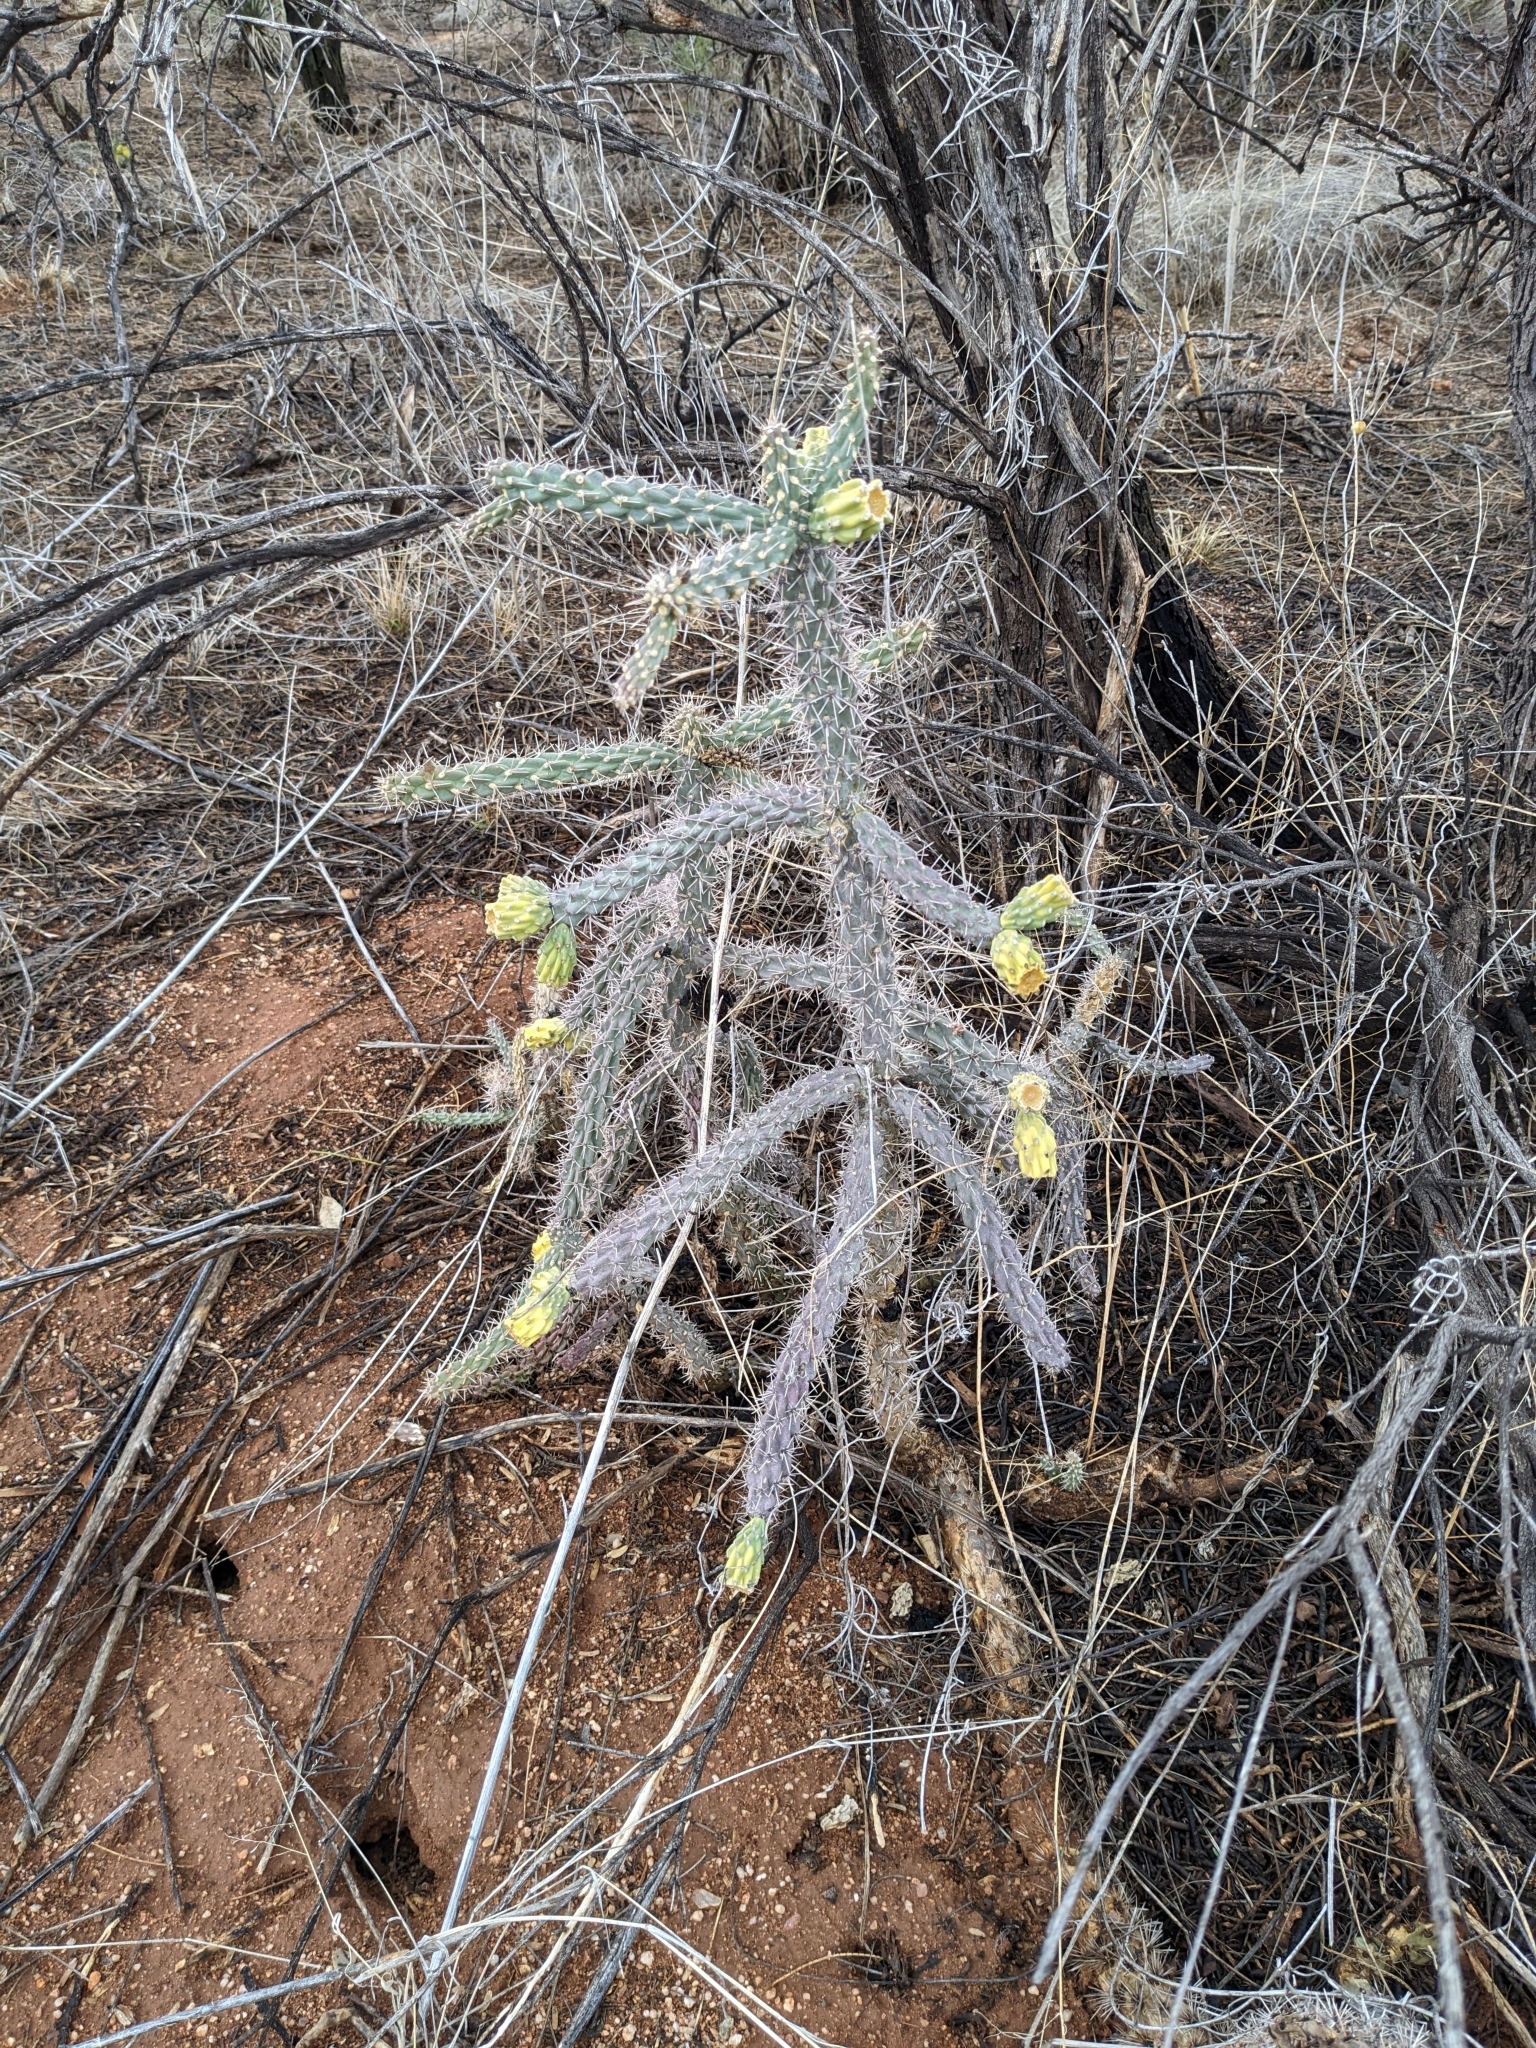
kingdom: Plantae
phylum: Tracheophyta
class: Magnoliopsida
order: Caryophyllales
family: Cactaceae
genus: Cylindropuntia
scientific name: Cylindropuntia imbricata
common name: Candelabrum cactus
